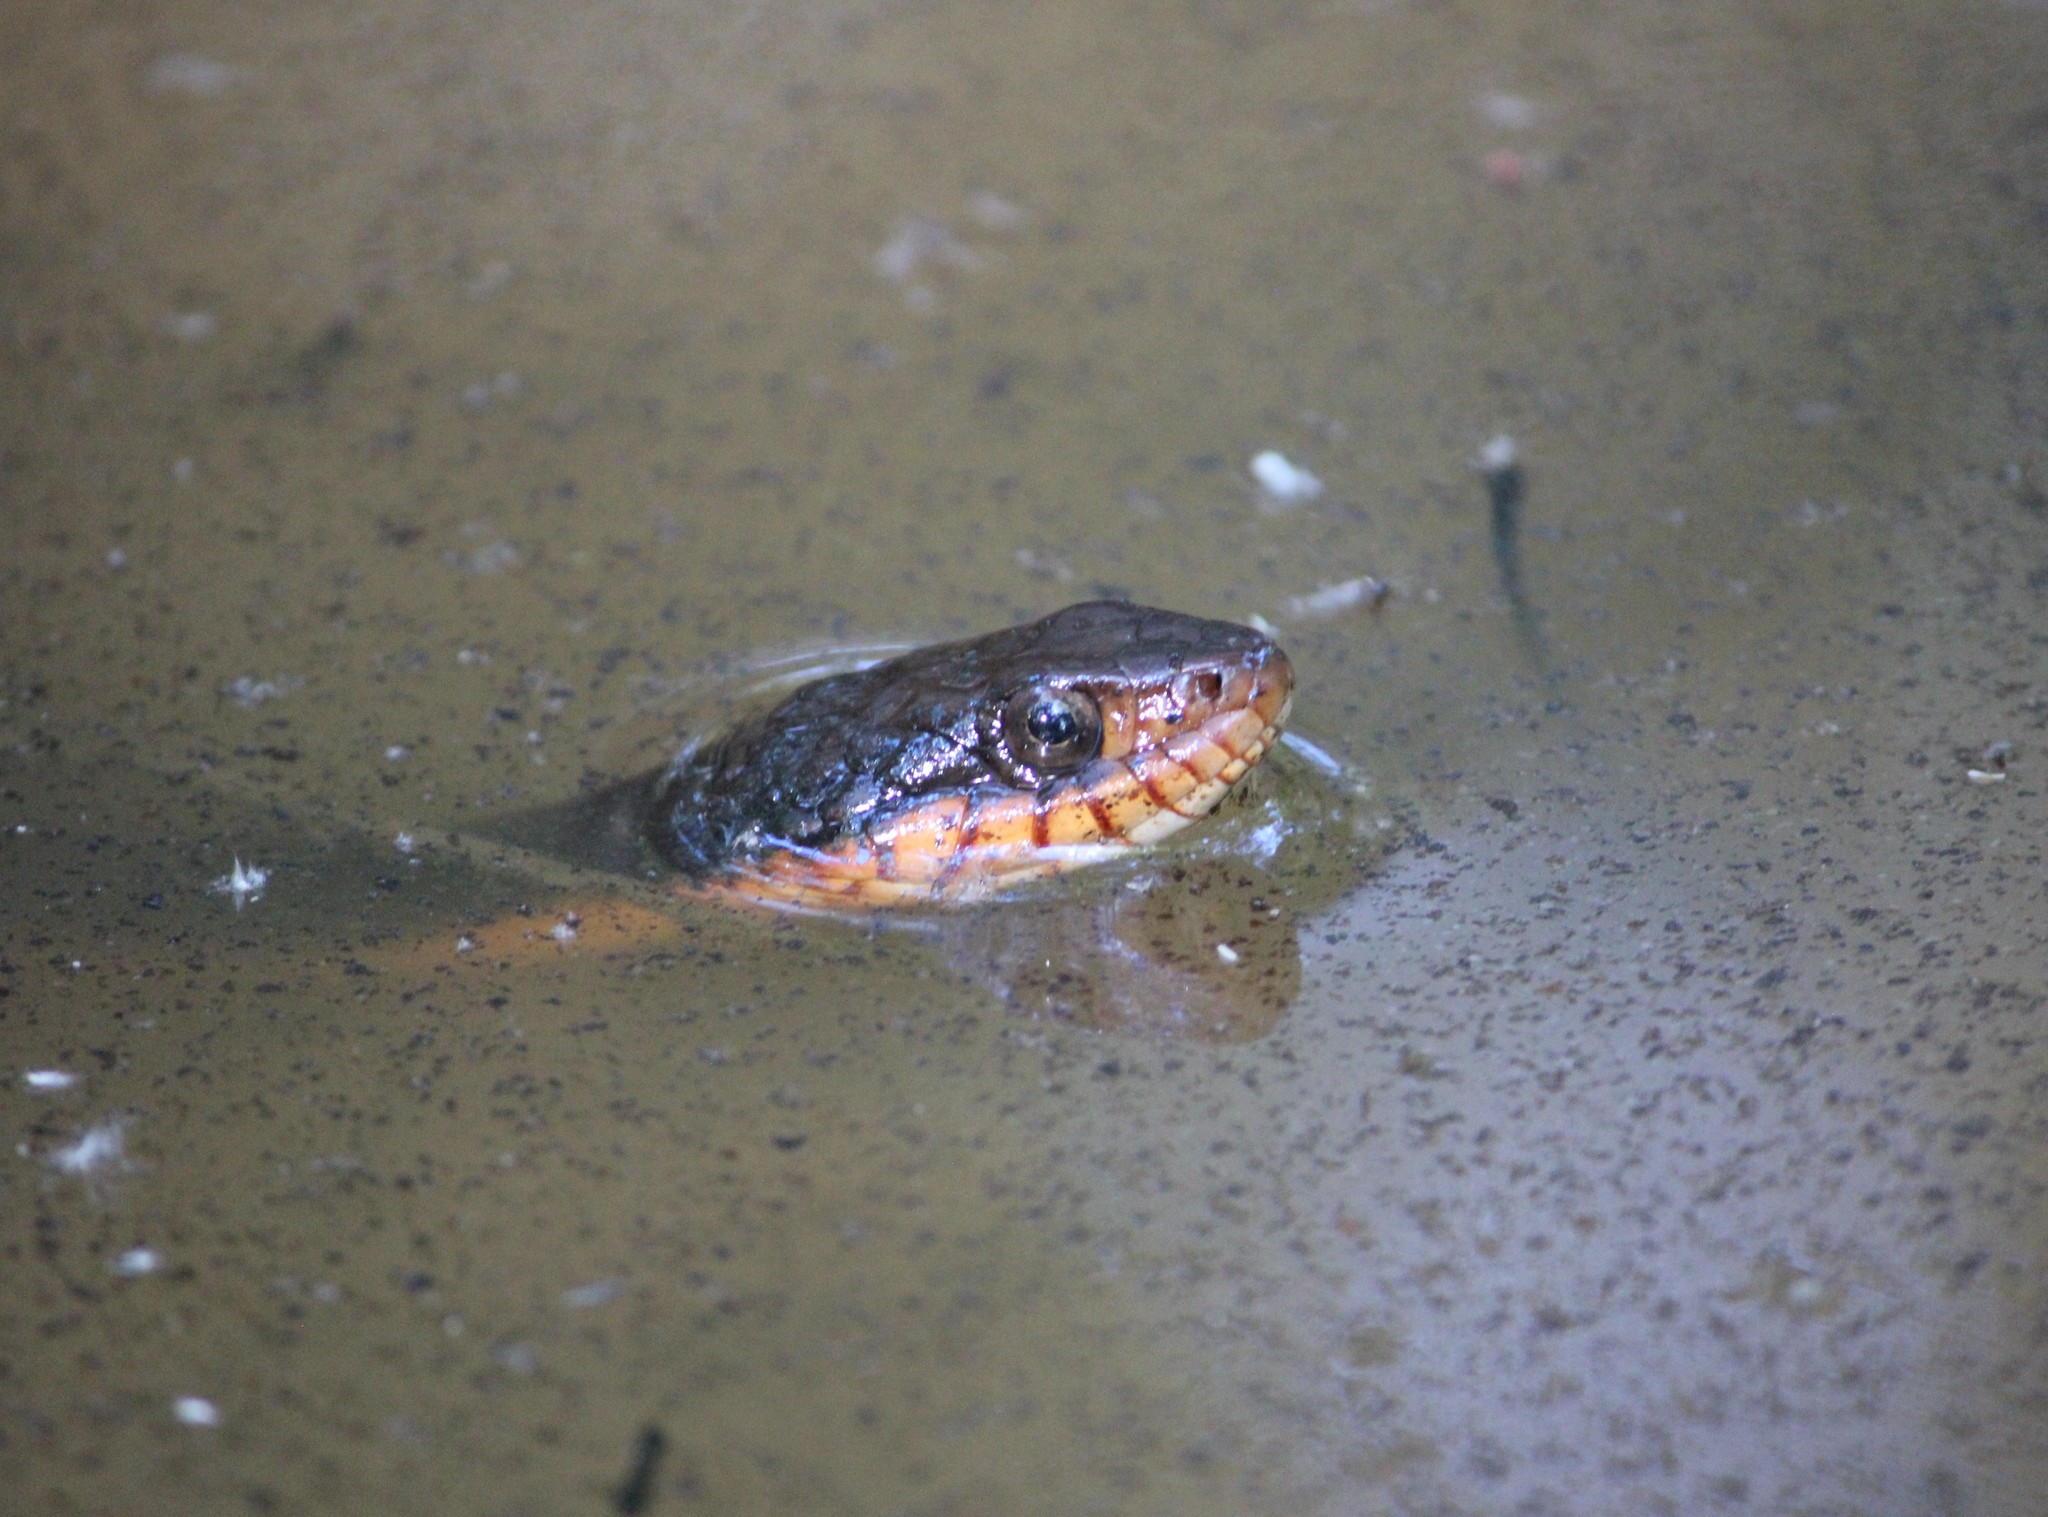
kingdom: Animalia
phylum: Chordata
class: Squamata
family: Colubridae
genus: Nerodia
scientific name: Nerodia erythrogaster
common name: Plainbelly water snake
